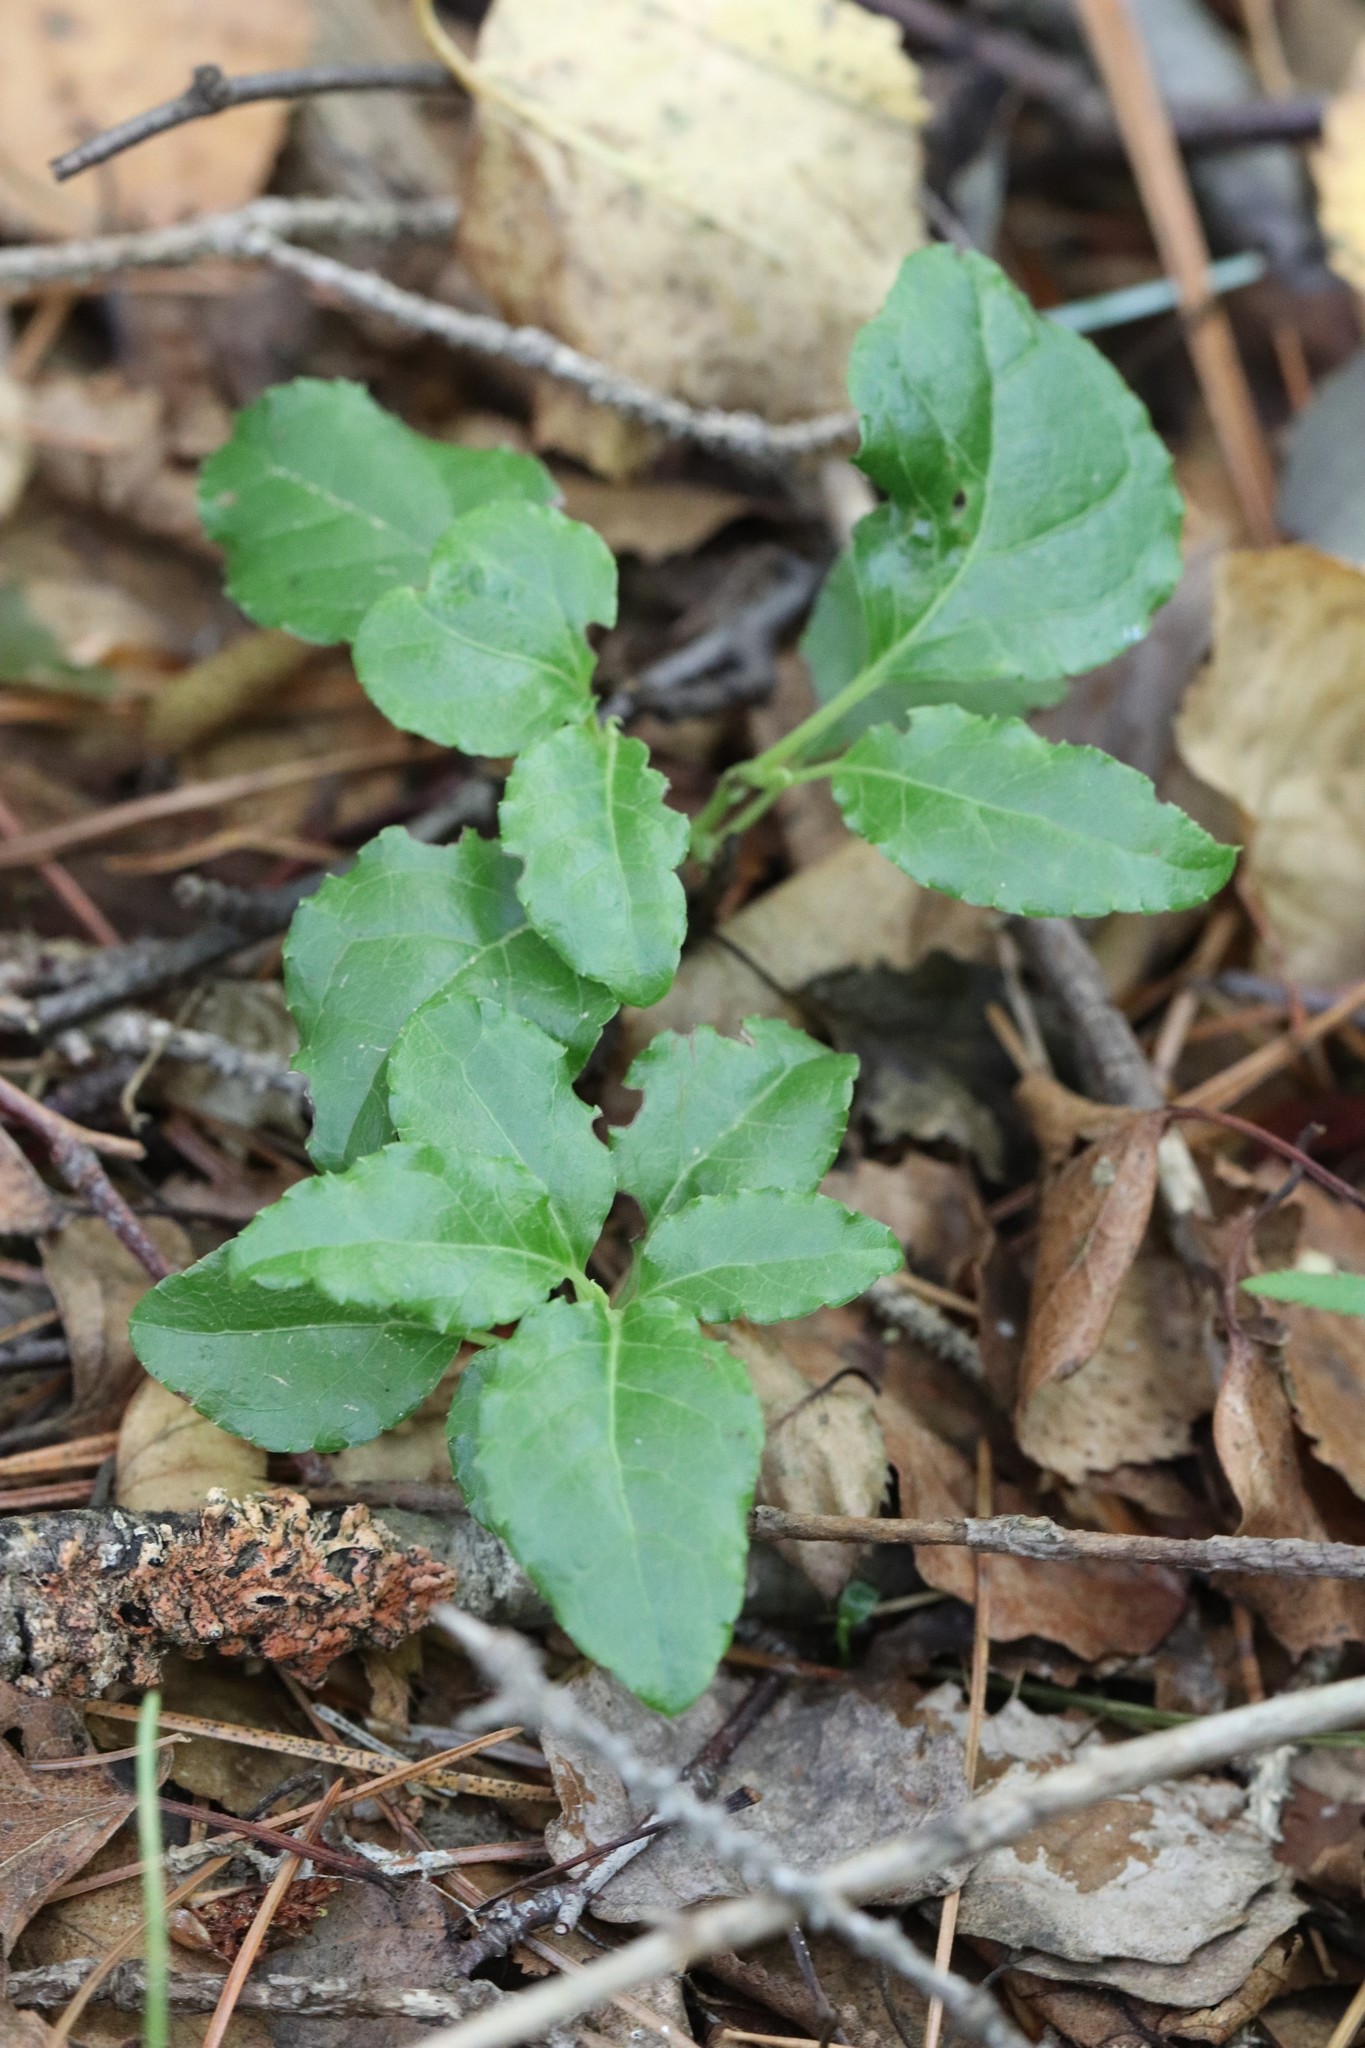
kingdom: Plantae
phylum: Tracheophyta
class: Magnoliopsida
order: Ericales
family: Ericaceae
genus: Orthilia
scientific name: Orthilia secunda
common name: One-sided orthilia
